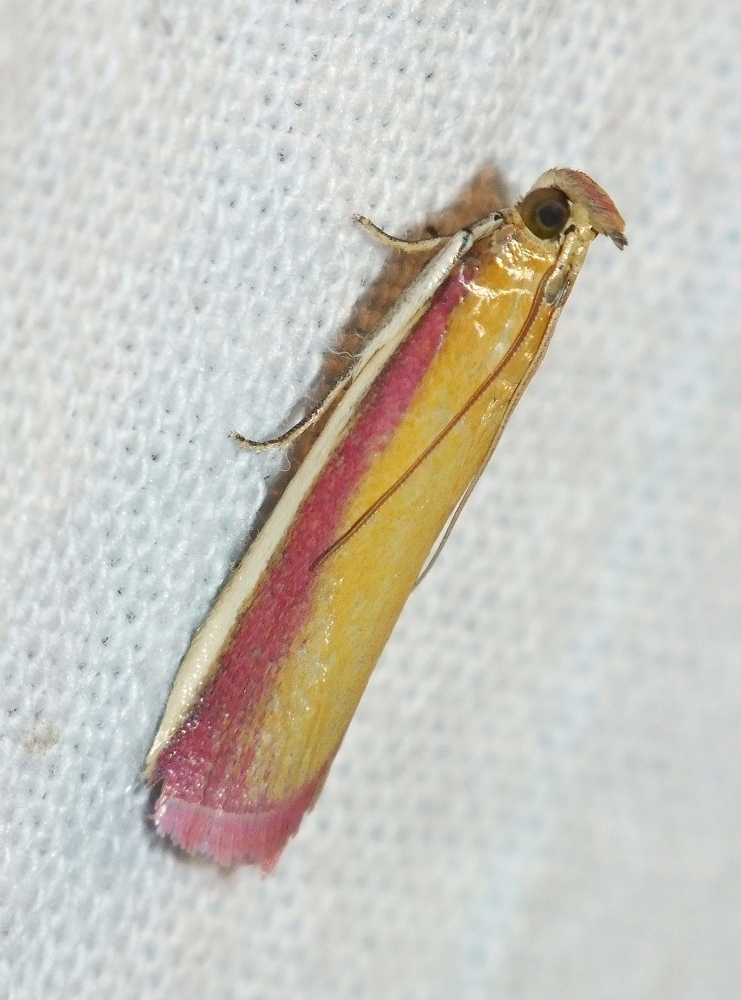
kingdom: Animalia
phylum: Arthropoda
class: Insecta
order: Lepidoptera
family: Pyralidae
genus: Oncocera
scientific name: Oncocera semirubella
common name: Rosy-striped knot-horn
